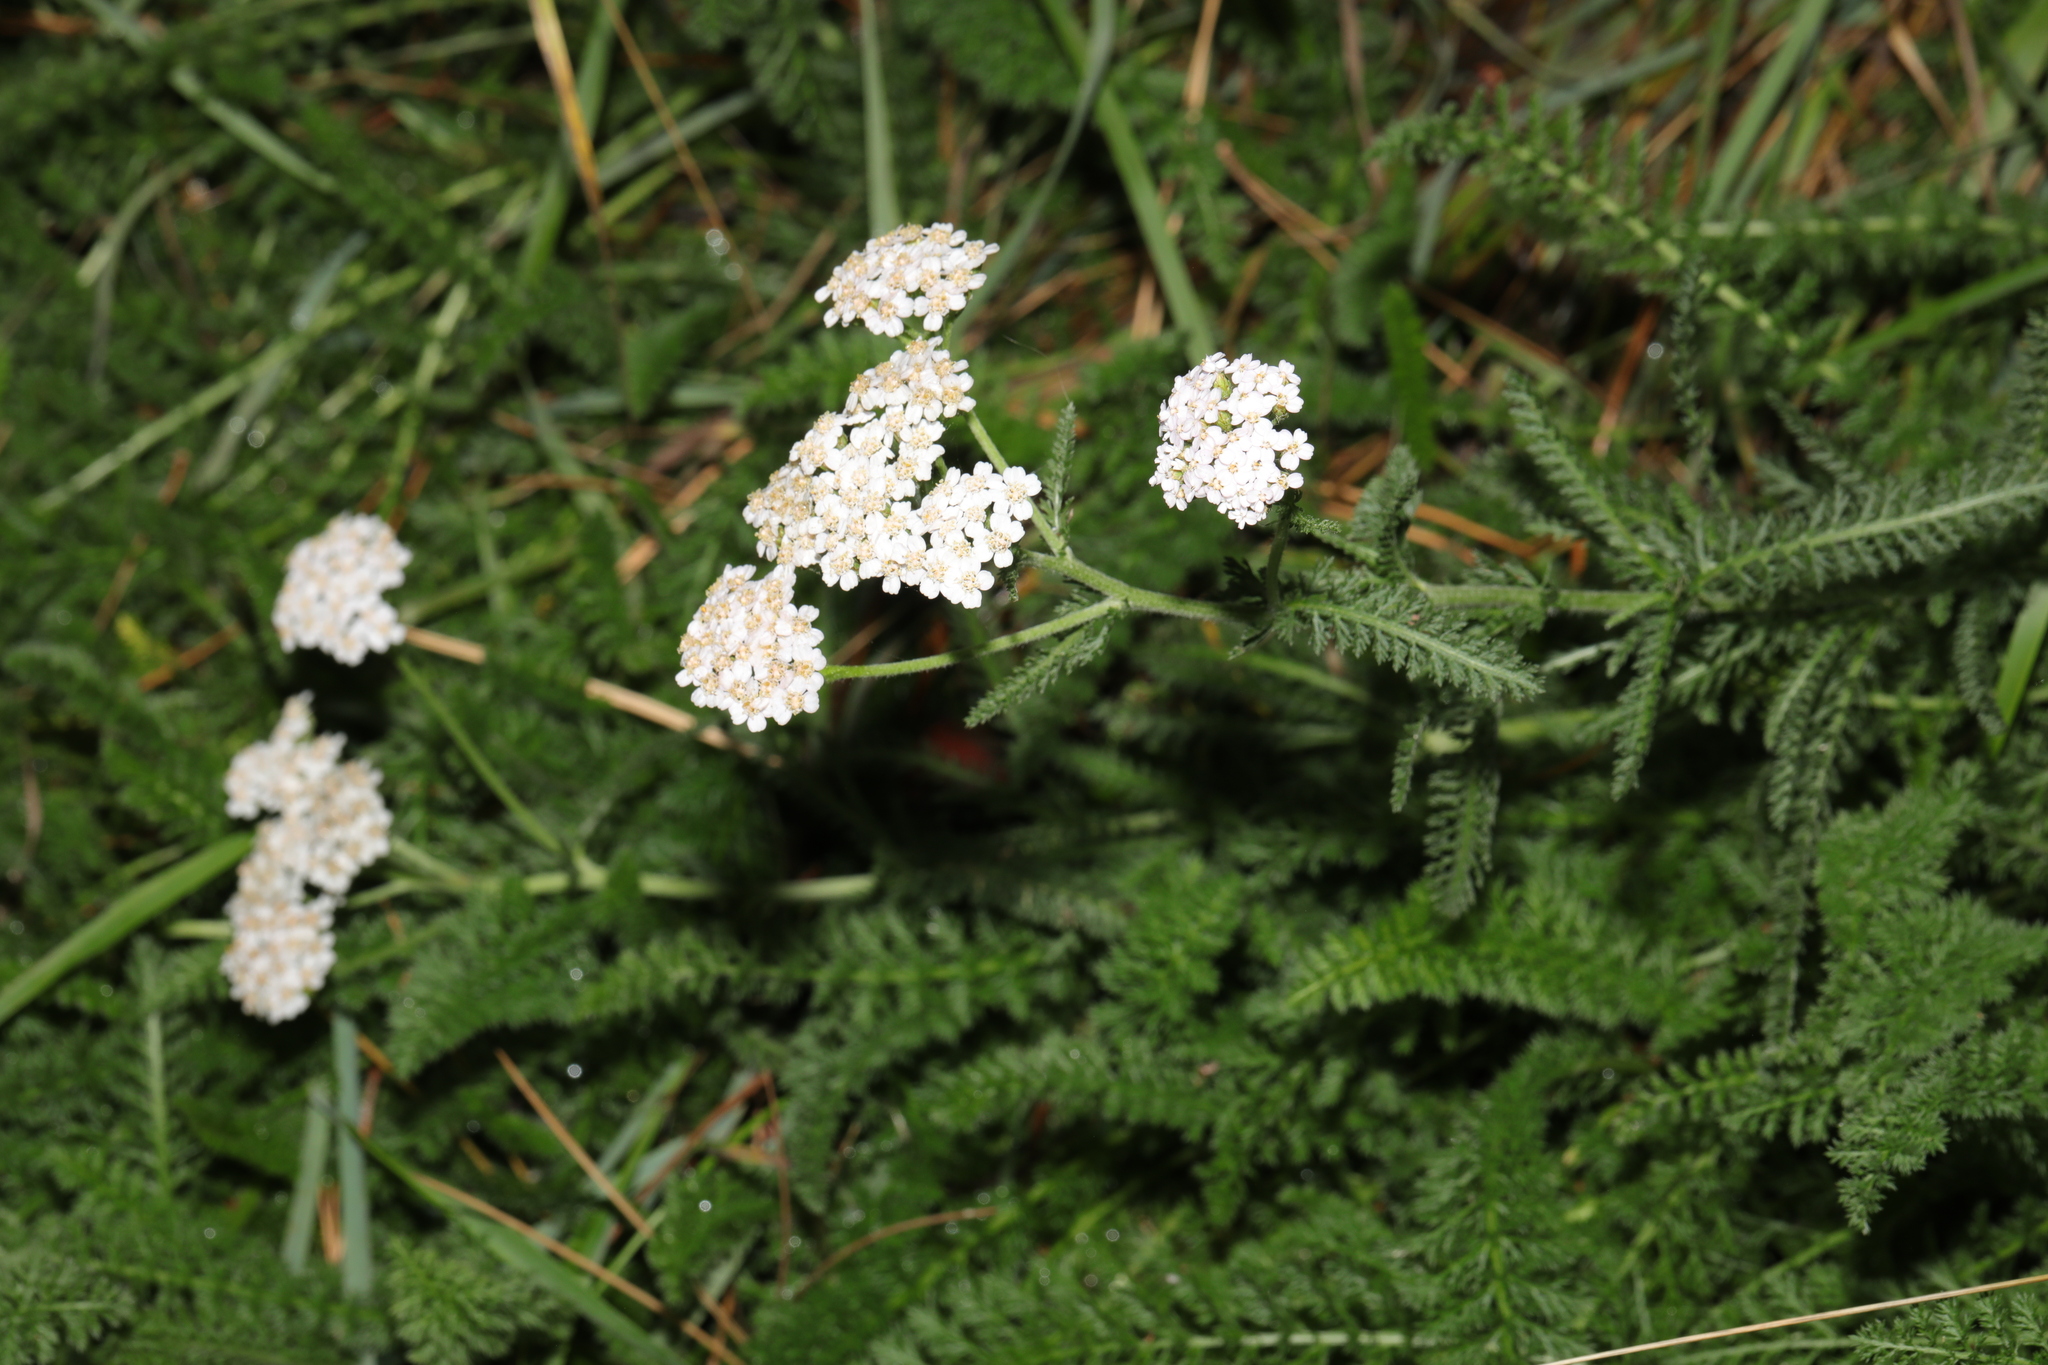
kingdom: Plantae
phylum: Tracheophyta
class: Magnoliopsida
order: Asterales
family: Asteraceae
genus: Achillea
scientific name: Achillea millefolium
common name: Yarrow
